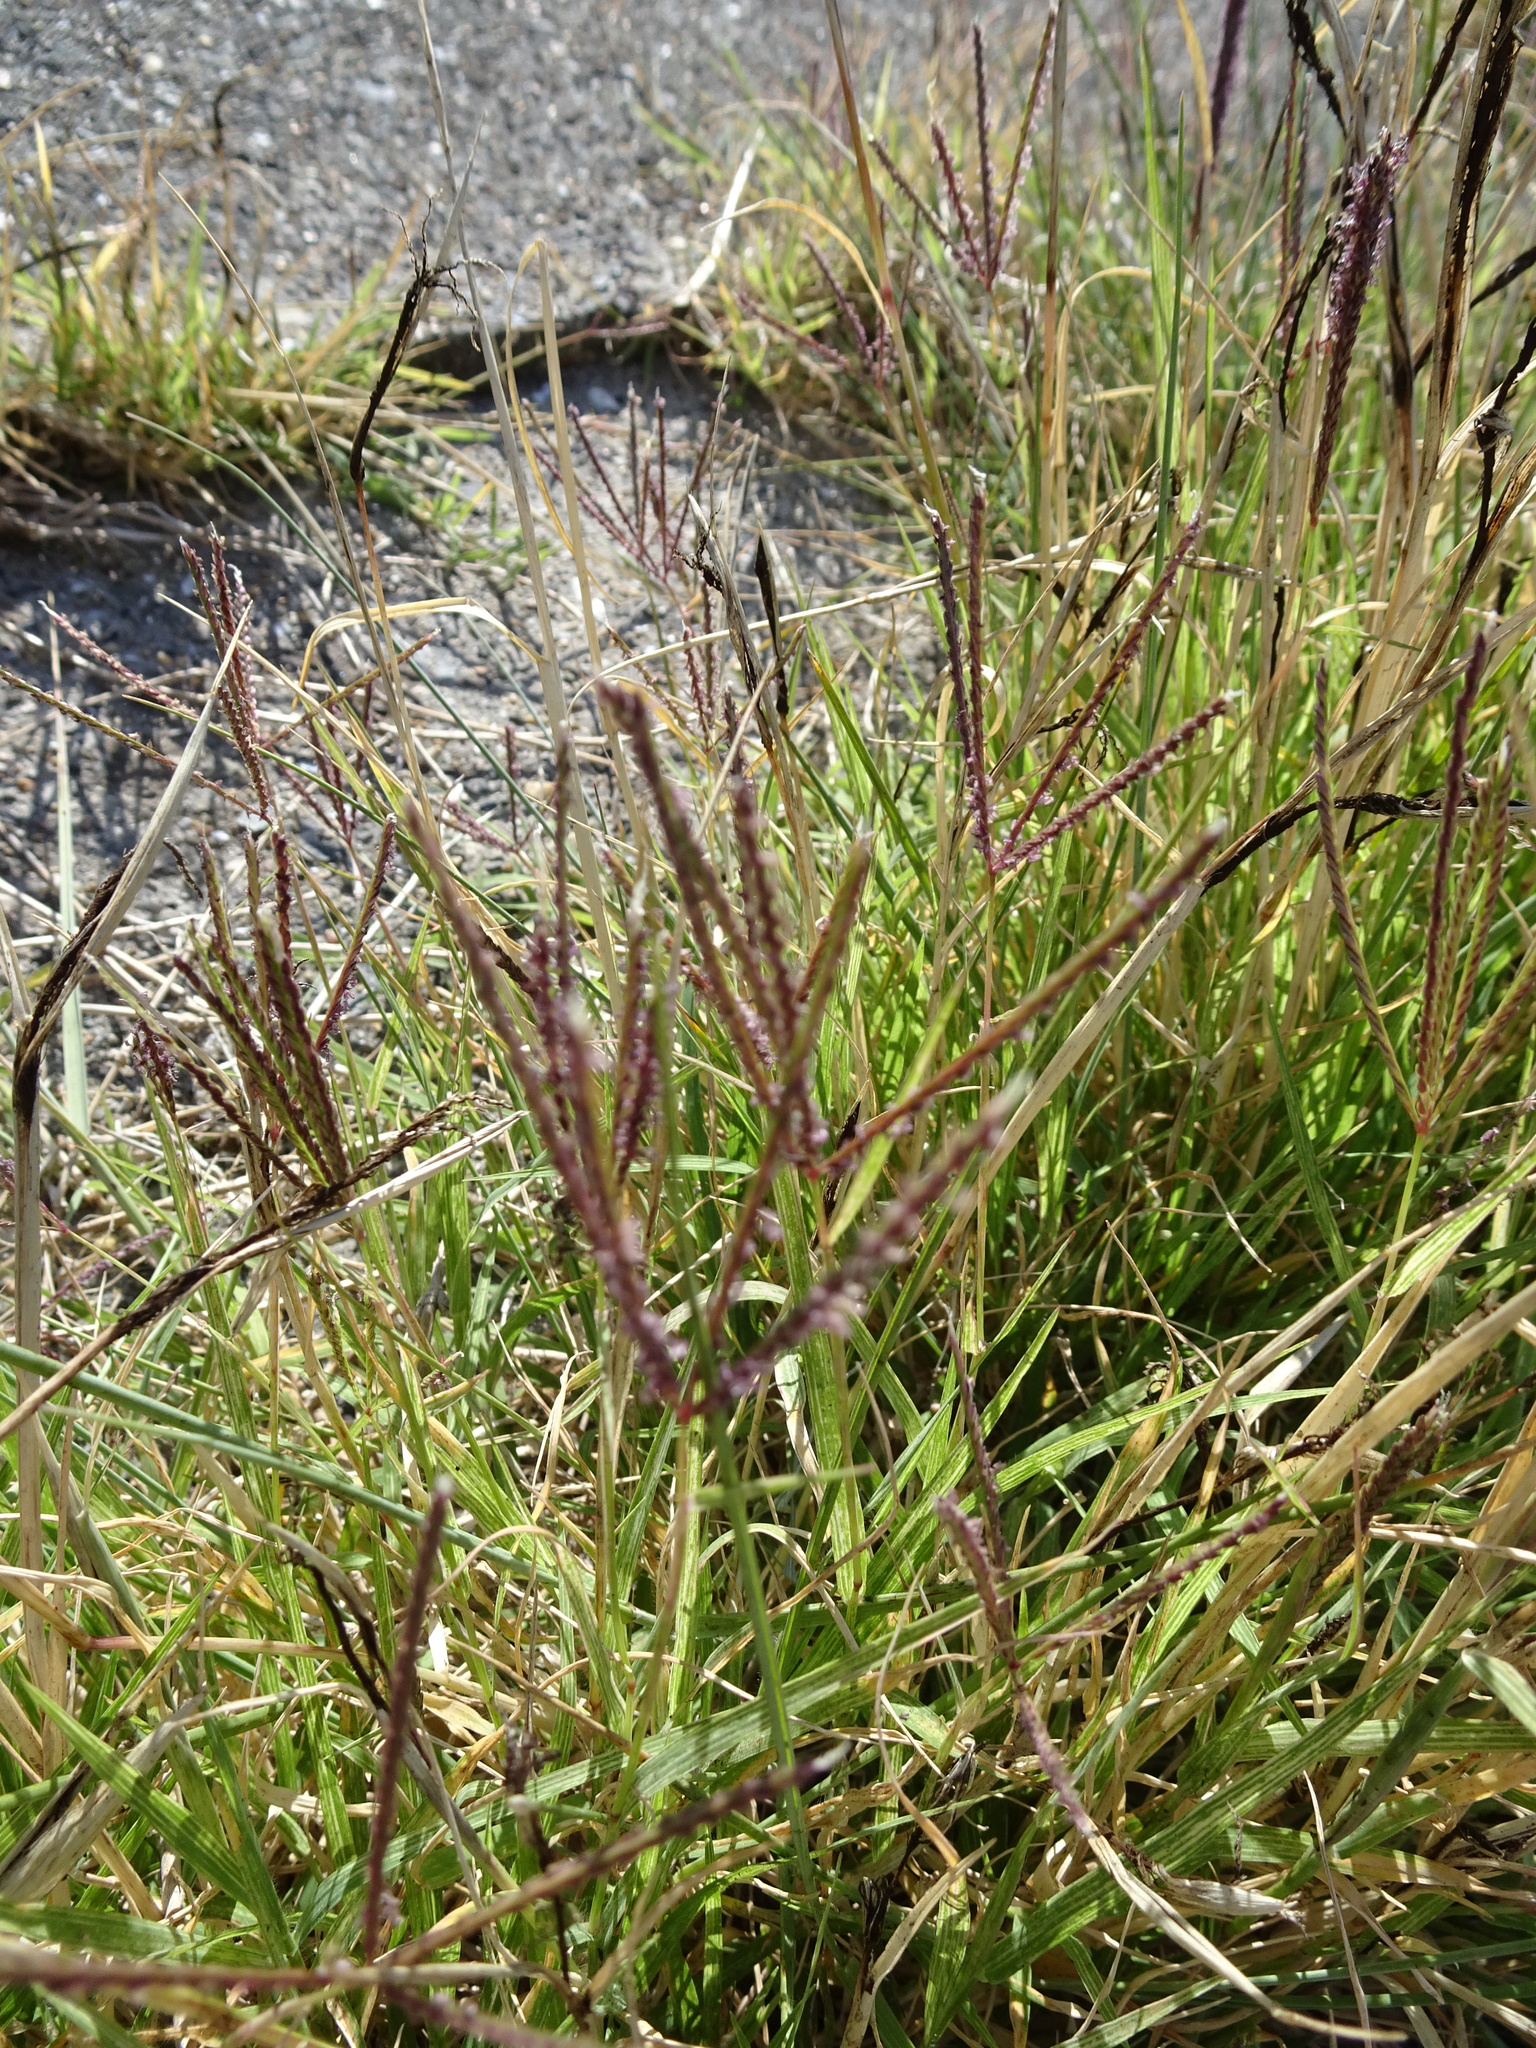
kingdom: Plantae
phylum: Tracheophyta
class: Liliopsida
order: Poales
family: Poaceae
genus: Cynodon
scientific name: Cynodon dactylon
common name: Bermuda grass
